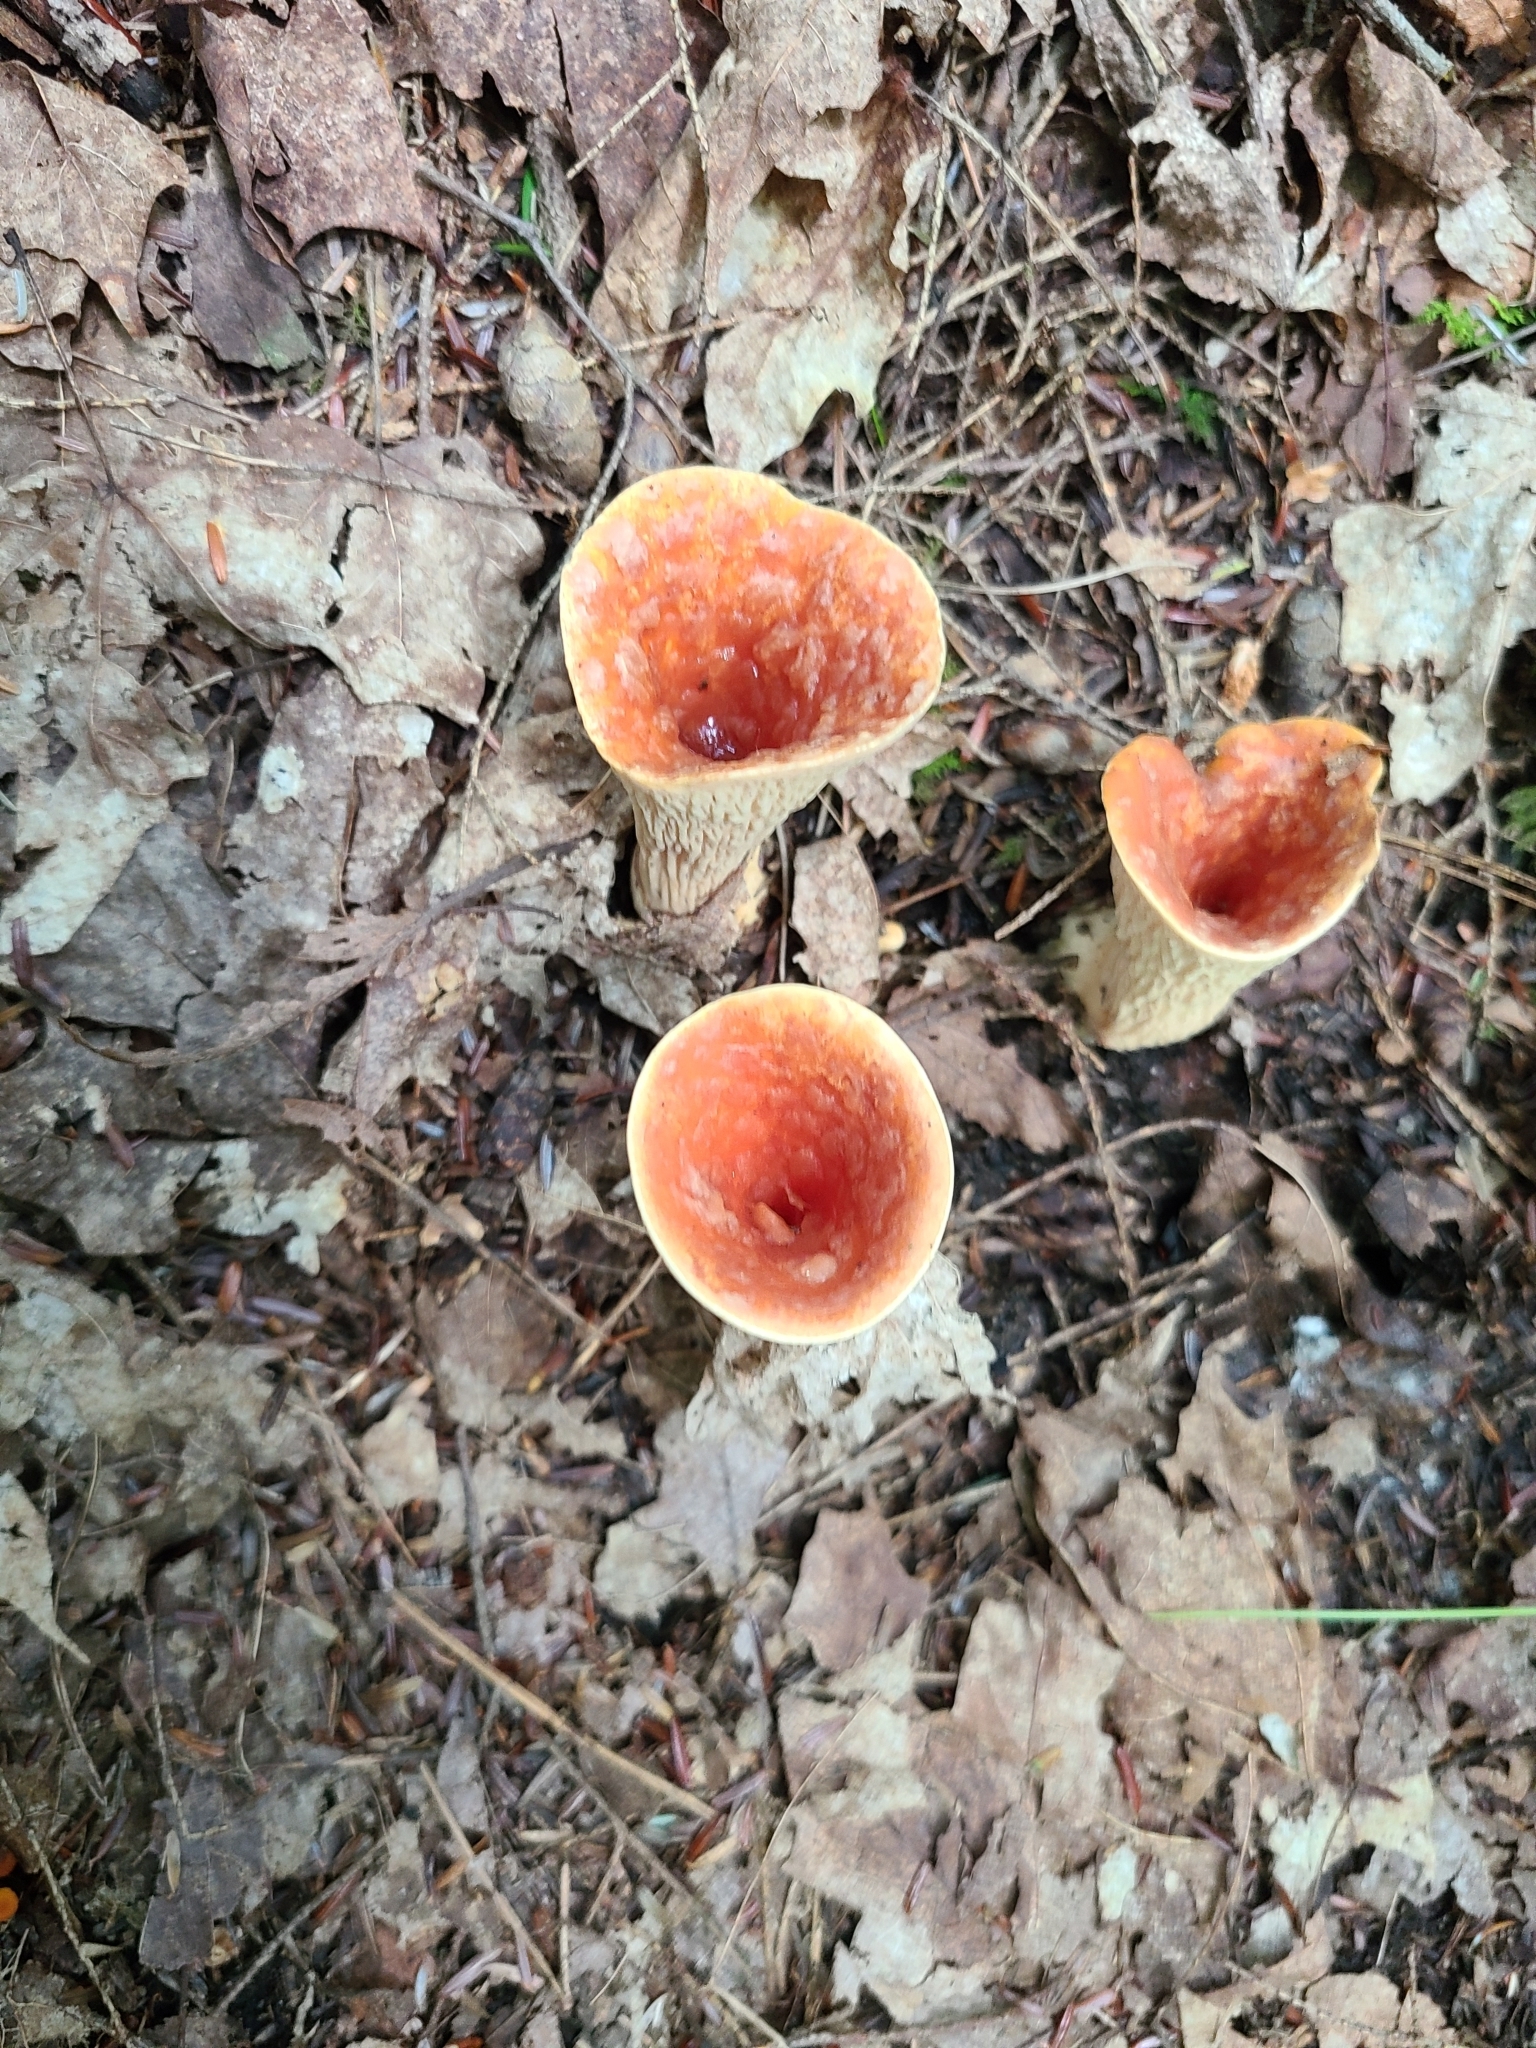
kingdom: Fungi
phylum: Basidiomycota
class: Agaricomycetes
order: Gomphales
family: Gomphaceae
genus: Turbinellus
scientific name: Turbinellus floccosus
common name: Scaly chanterelle
